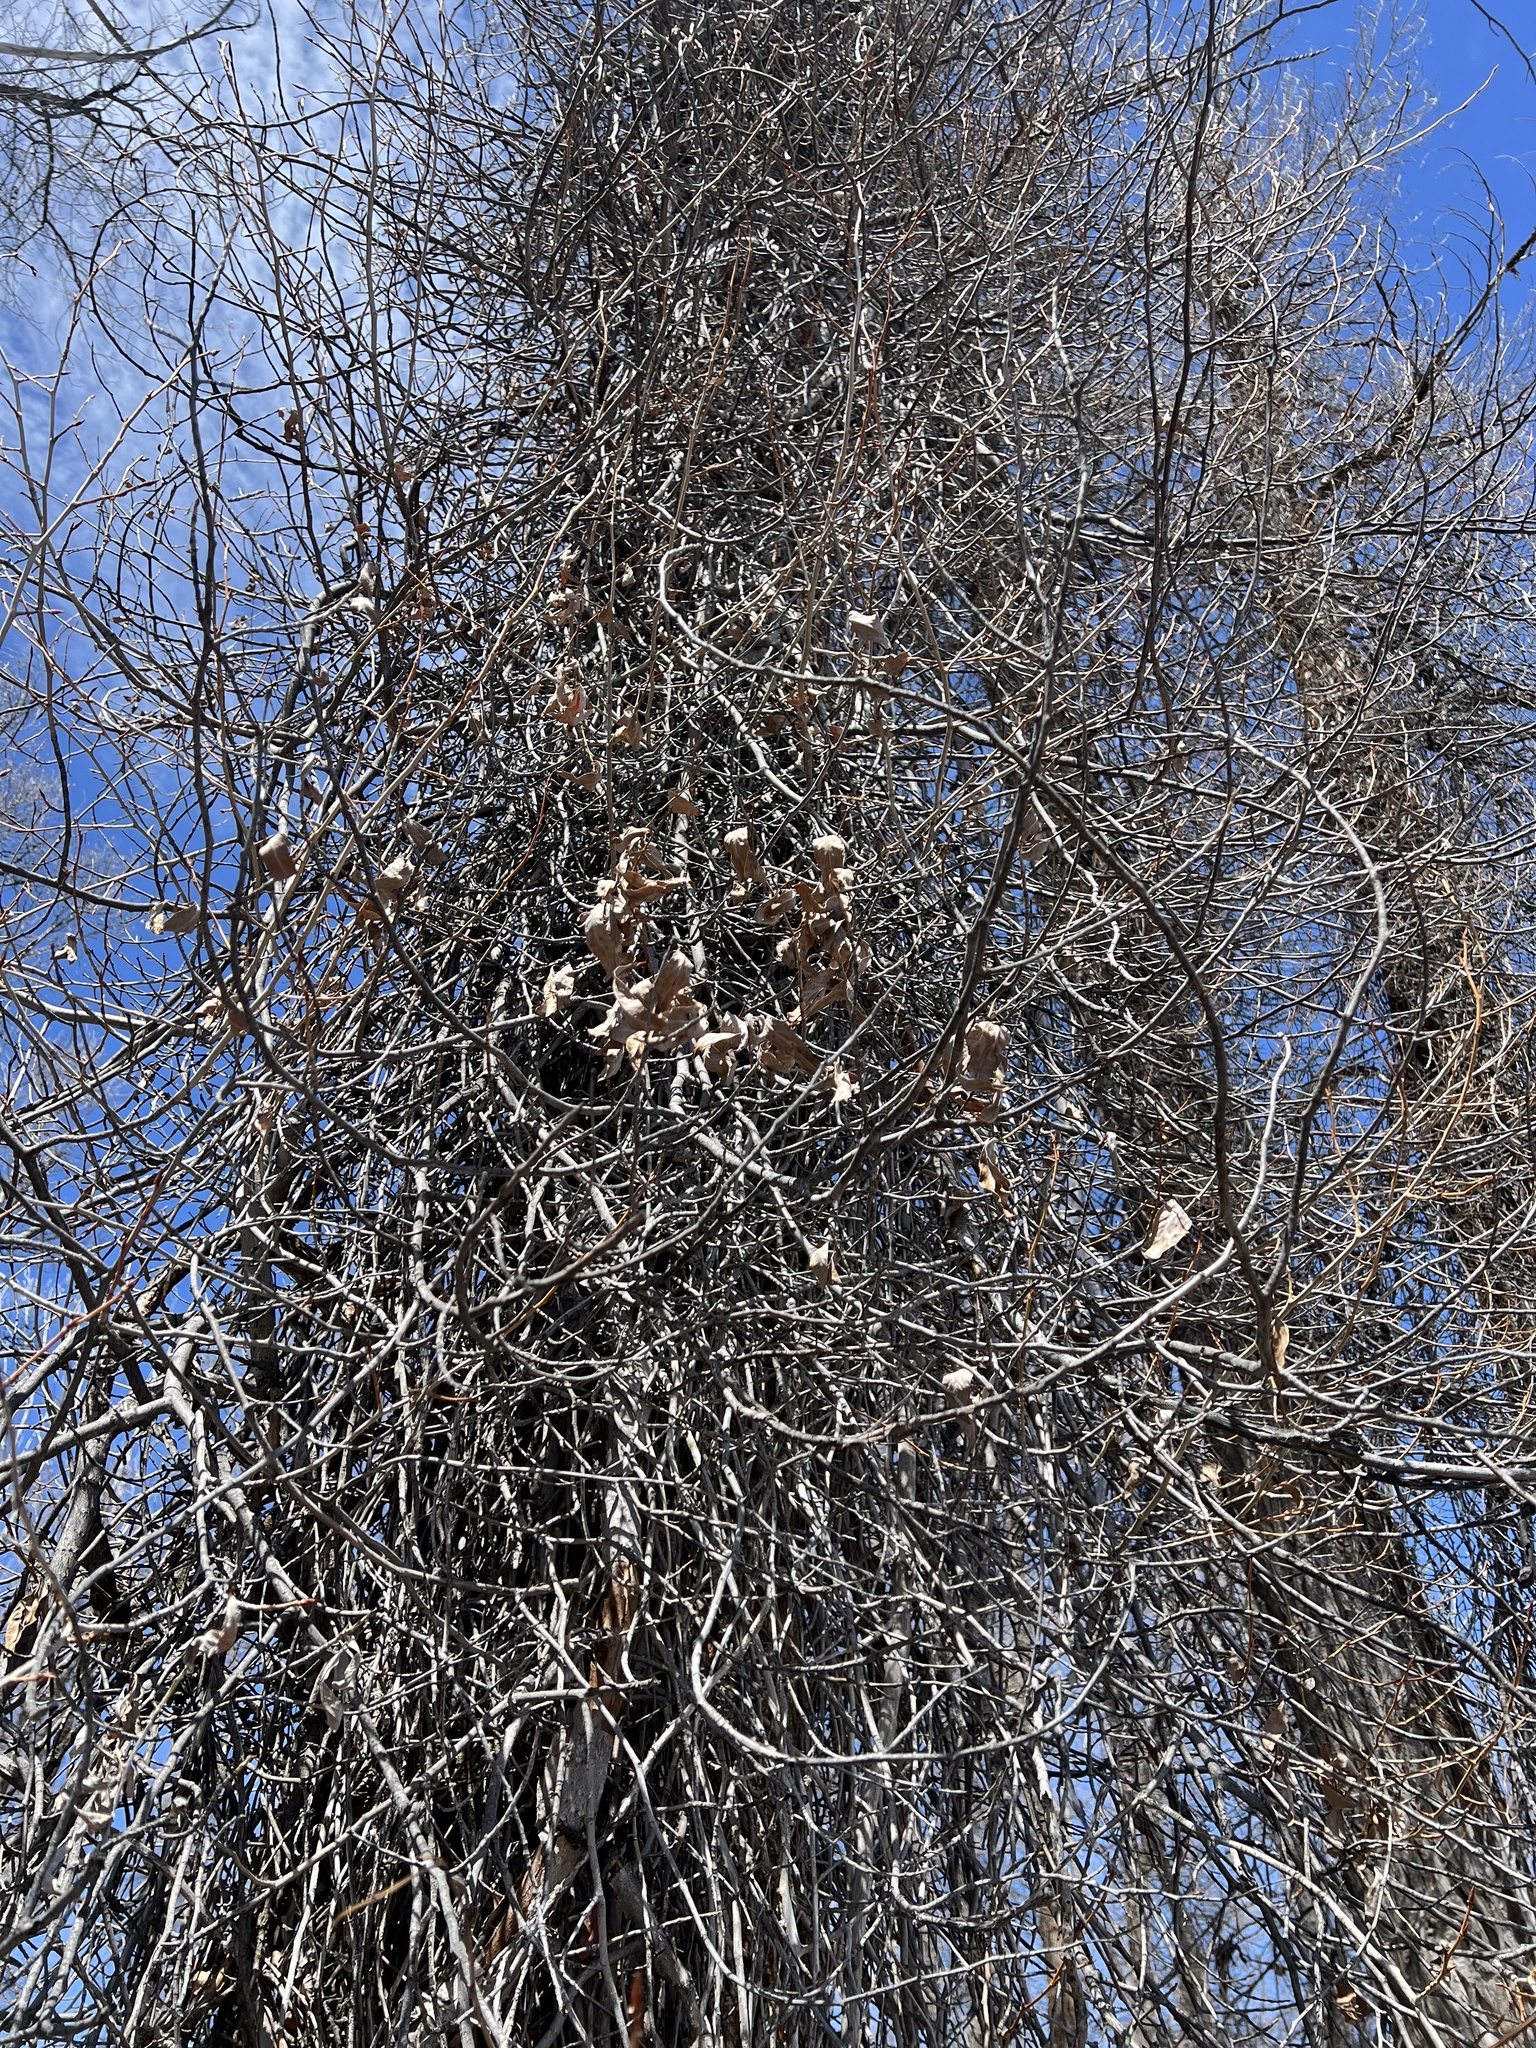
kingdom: Plantae
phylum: Tracheophyta
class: Magnoliopsida
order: Malpighiales
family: Salicaceae
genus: Populus
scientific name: Populus angustifolia
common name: Willow cottonwood
